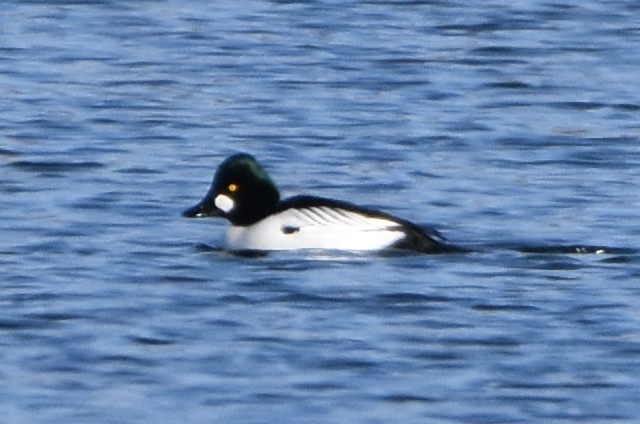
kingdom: Animalia
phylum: Chordata
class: Aves
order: Anseriformes
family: Anatidae
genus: Bucephala
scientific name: Bucephala clangula
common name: Common goldeneye
